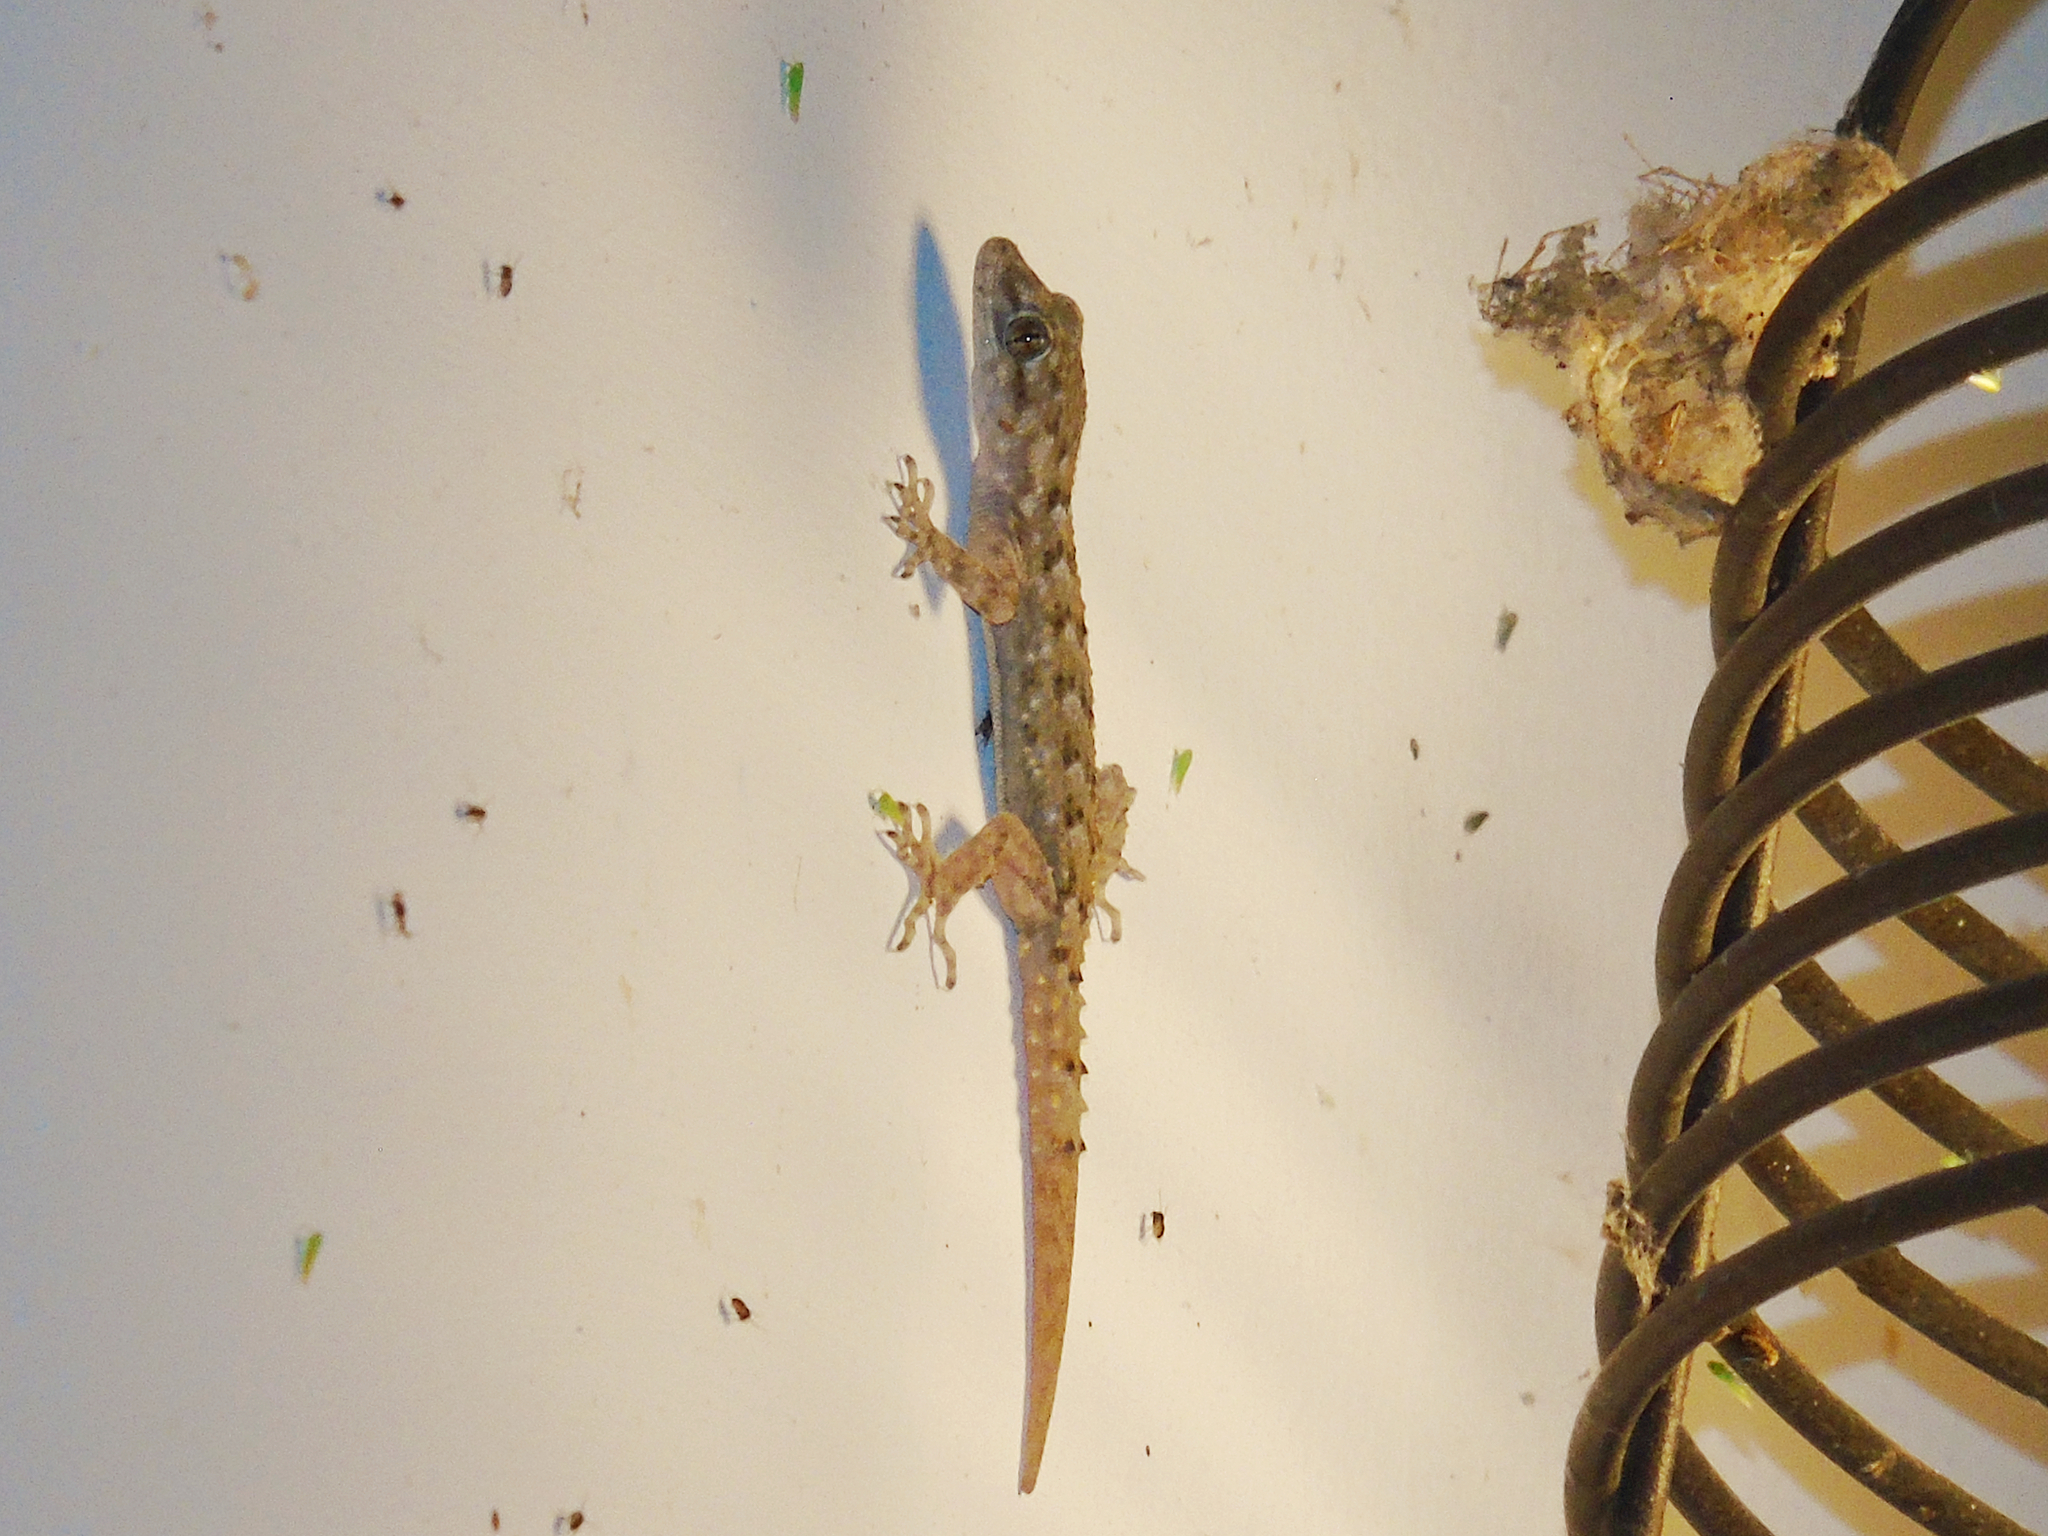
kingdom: Animalia
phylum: Chordata
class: Squamata
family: Gekkonidae
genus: Mediodactylus
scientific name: Mediodactylus kotschyi
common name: Kotschy's gecko
